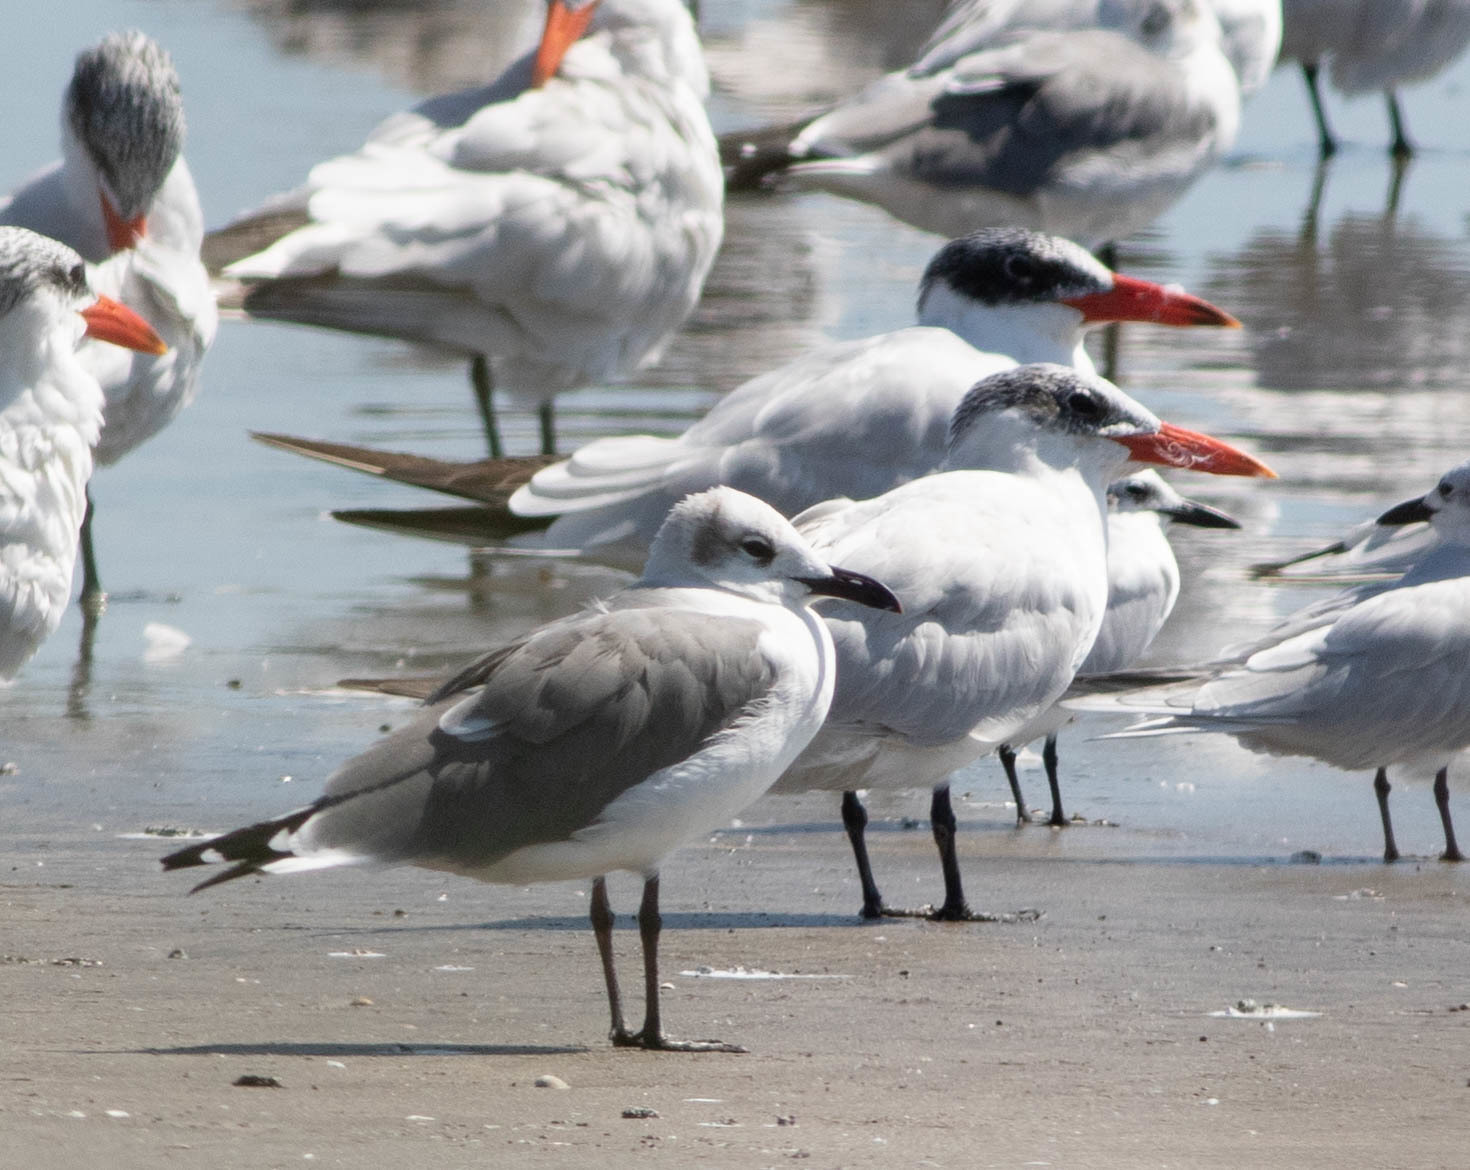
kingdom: Animalia
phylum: Chordata
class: Aves
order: Charadriiformes
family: Laridae
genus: Hydroprogne
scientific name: Hydroprogne caspia
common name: Caspian tern
